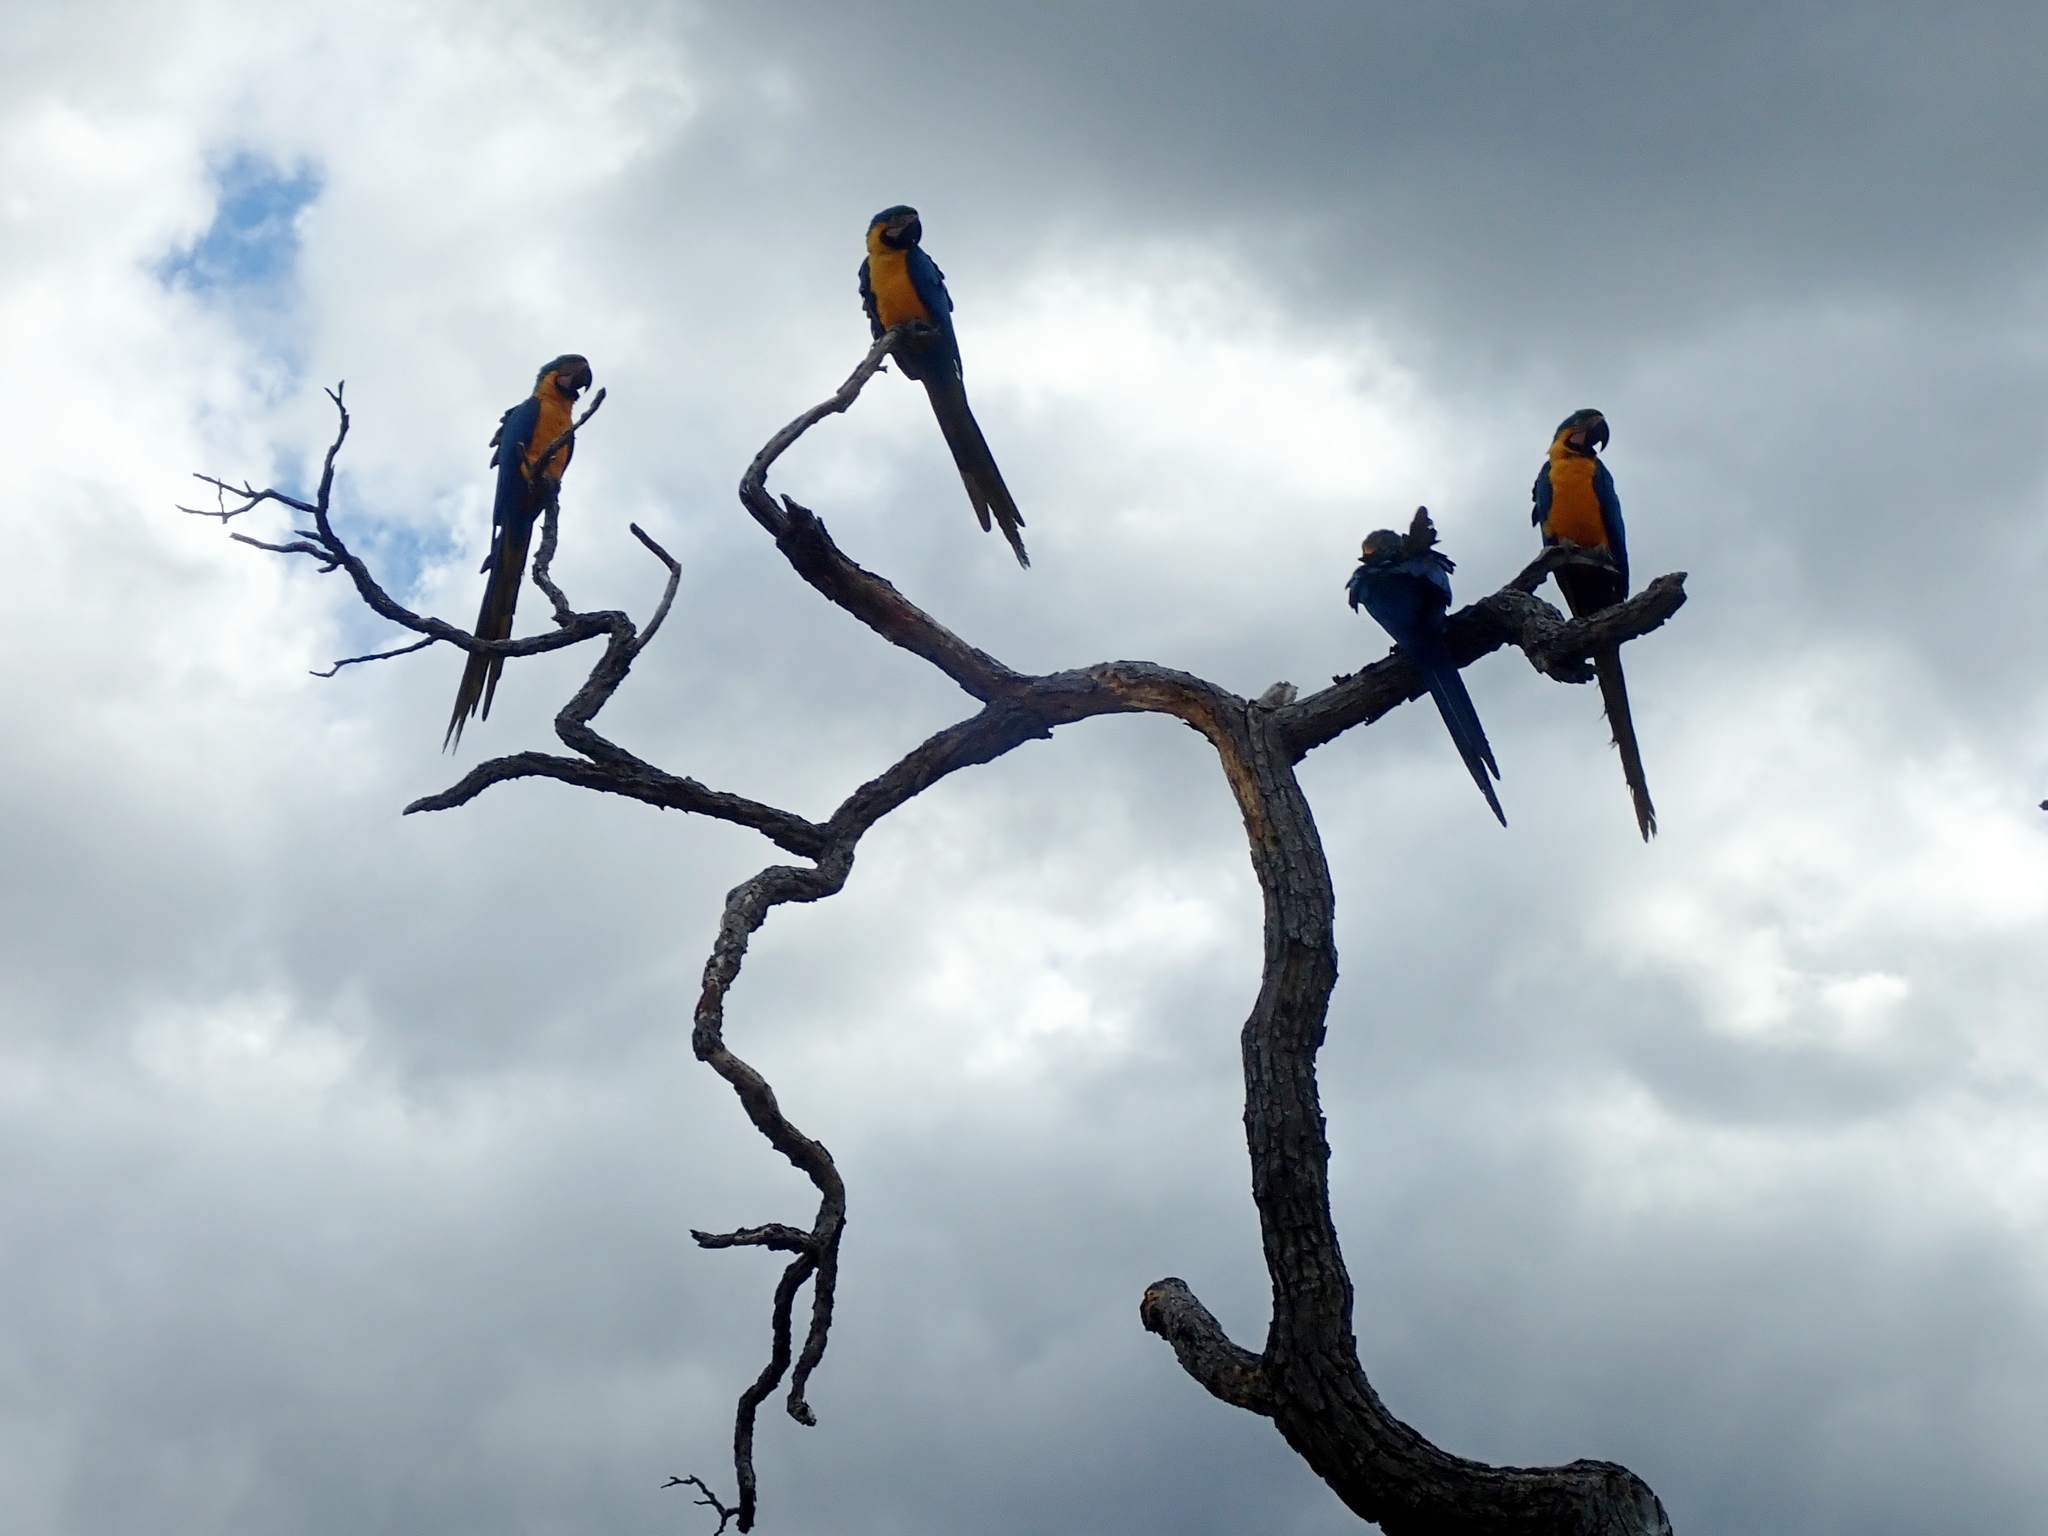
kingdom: Animalia
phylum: Chordata
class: Aves
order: Psittaciformes
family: Psittacidae
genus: Ara
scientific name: Ara ararauna
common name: Blue-and-yellow macaw
